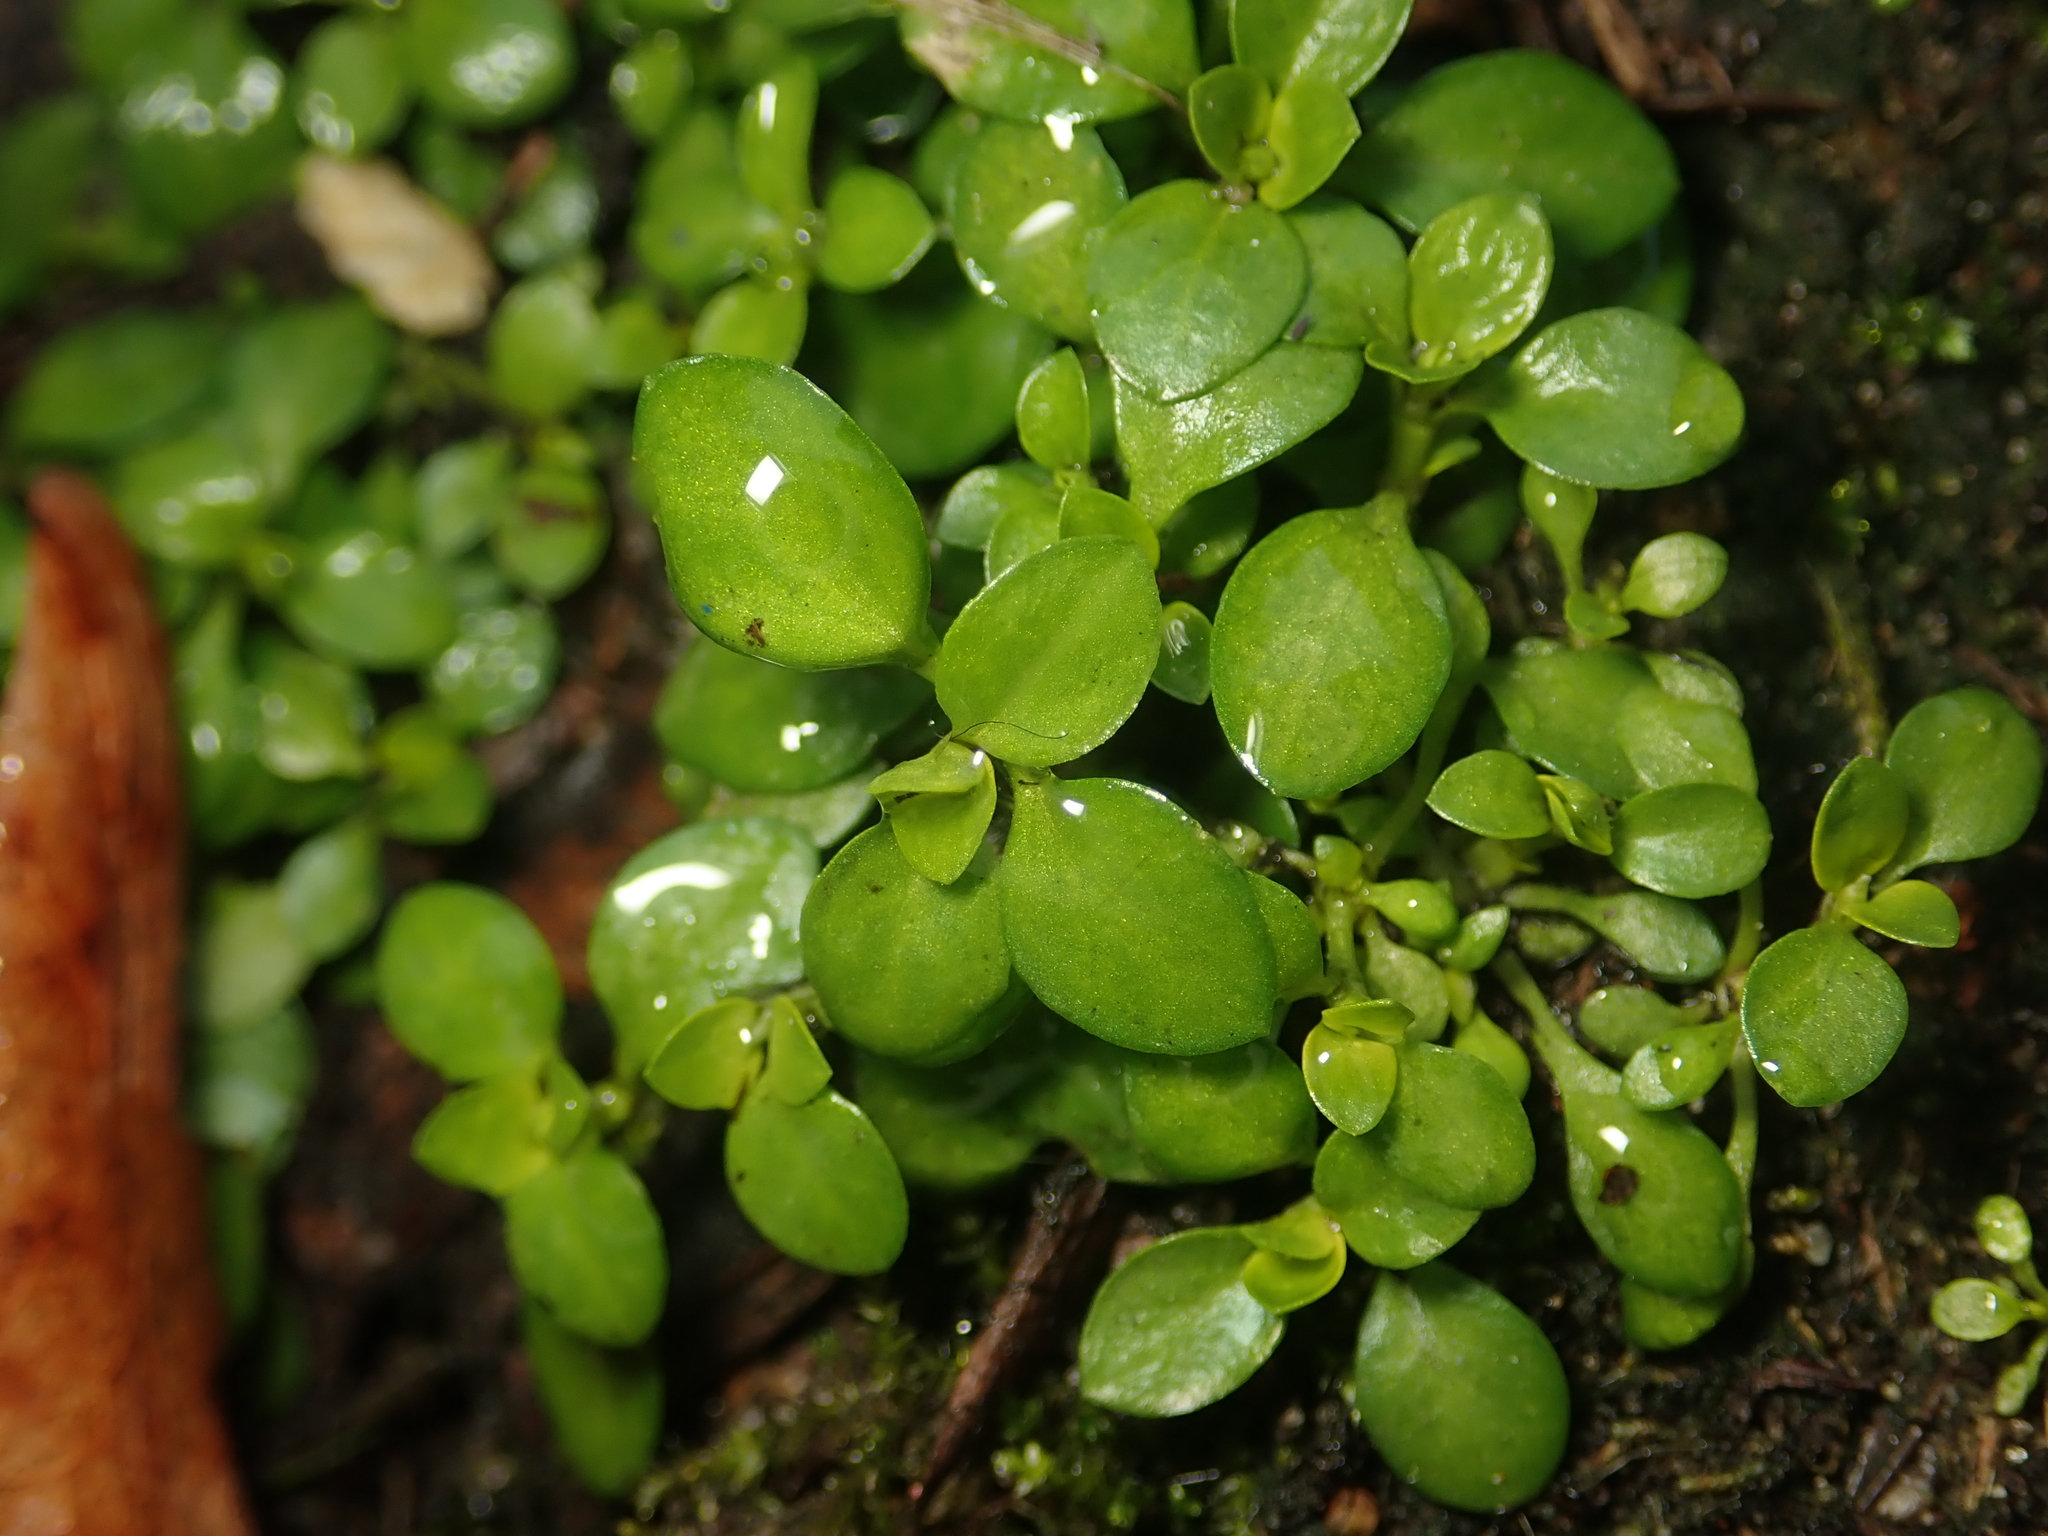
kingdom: Plantae
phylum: Tracheophyta
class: Magnoliopsida
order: Caryophyllales
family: Caryophyllaceae
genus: Stellaria
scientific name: Stellaria media
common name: Common chickweed
